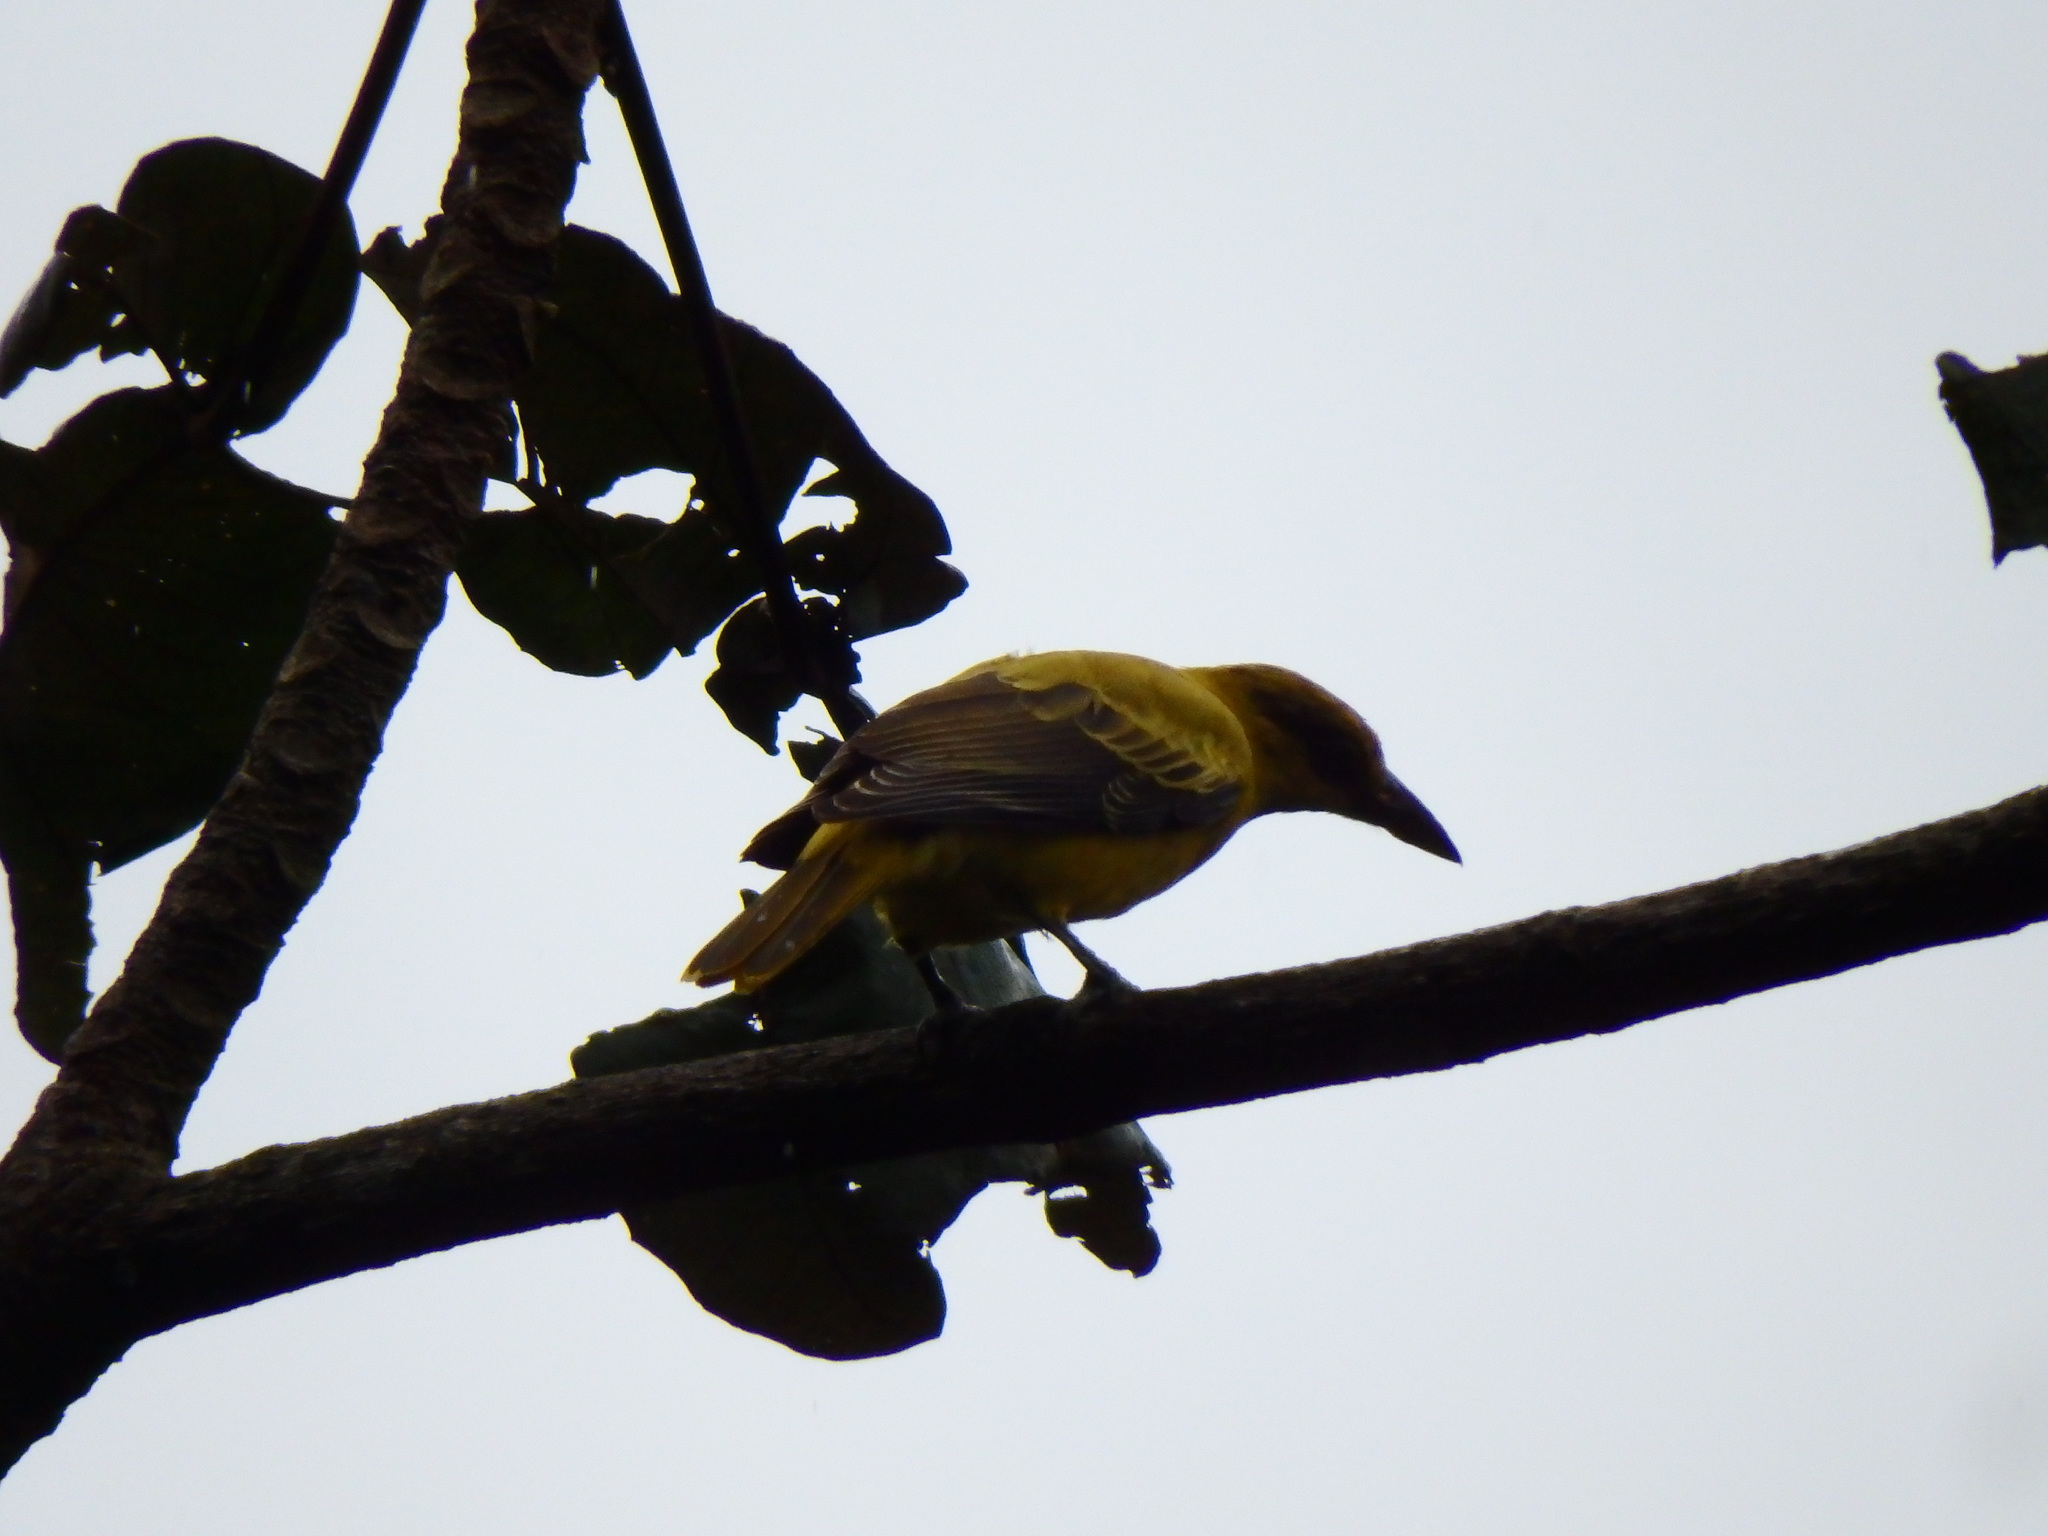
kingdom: Animalia
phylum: Chordata
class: Aves
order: Passeriformes
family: Oriolidae
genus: Oriolus
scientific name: Oriolus chinensis
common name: Black-naped oriole
